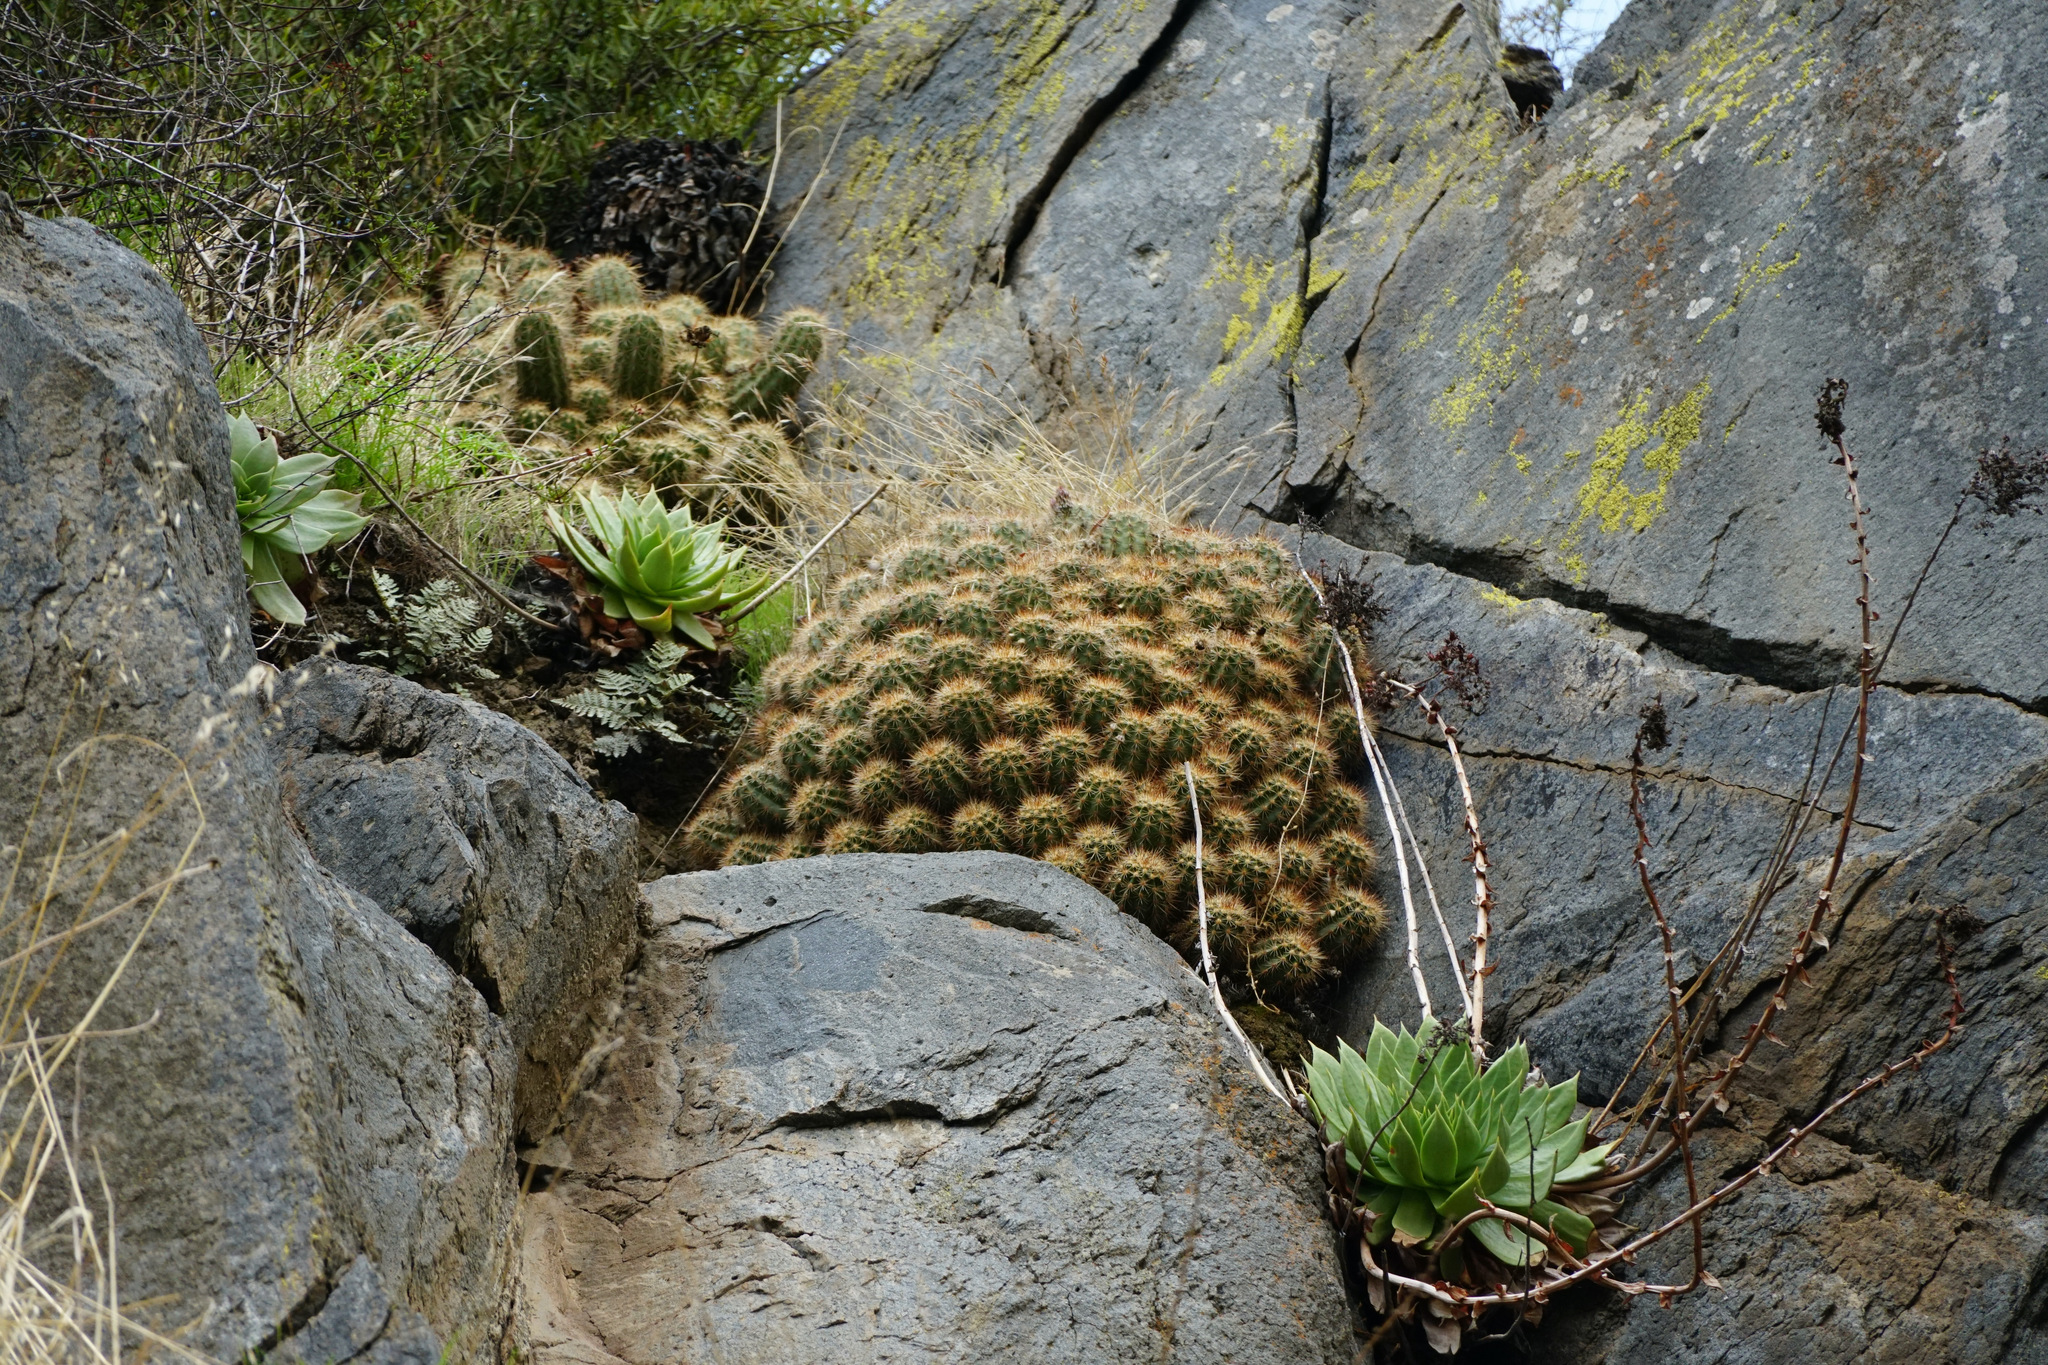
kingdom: Plantae
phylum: Tracheophyta
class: Magnoliopsida
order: Caryophyllales
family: Cactaceae
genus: Echinocereus
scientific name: Echinocereus pacificus
